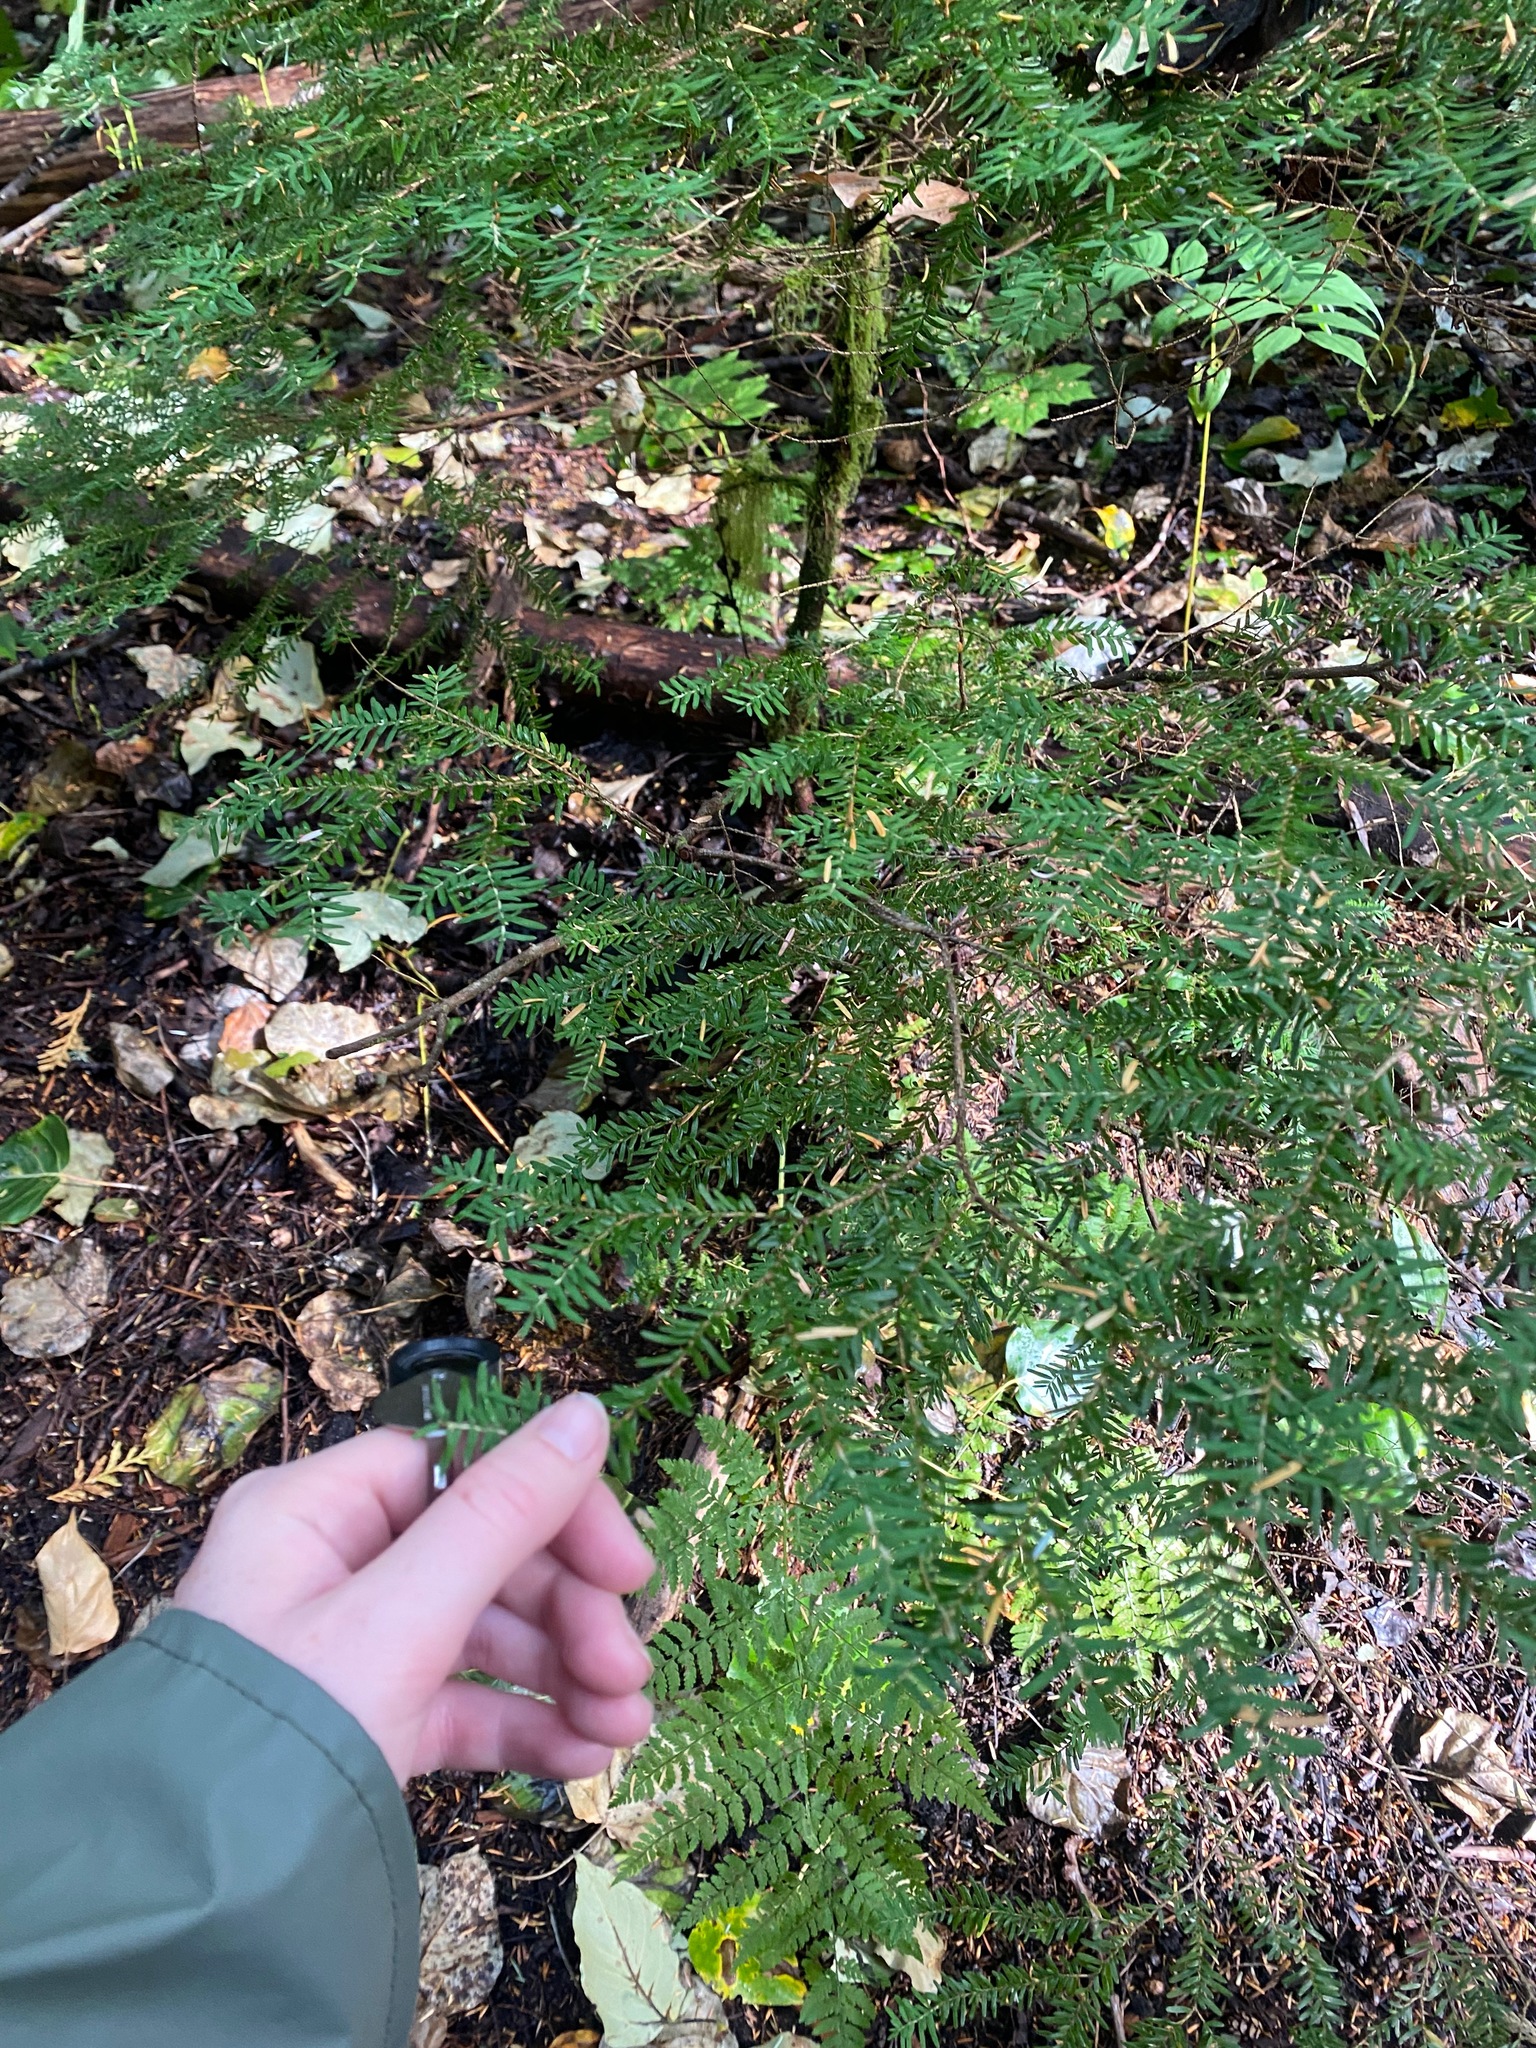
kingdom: Plantae
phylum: Tracheophyta
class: Pinopsida
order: Pinales
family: Pinaceae
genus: Tsuga
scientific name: Tsuga heterophylla
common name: Western hemlock
